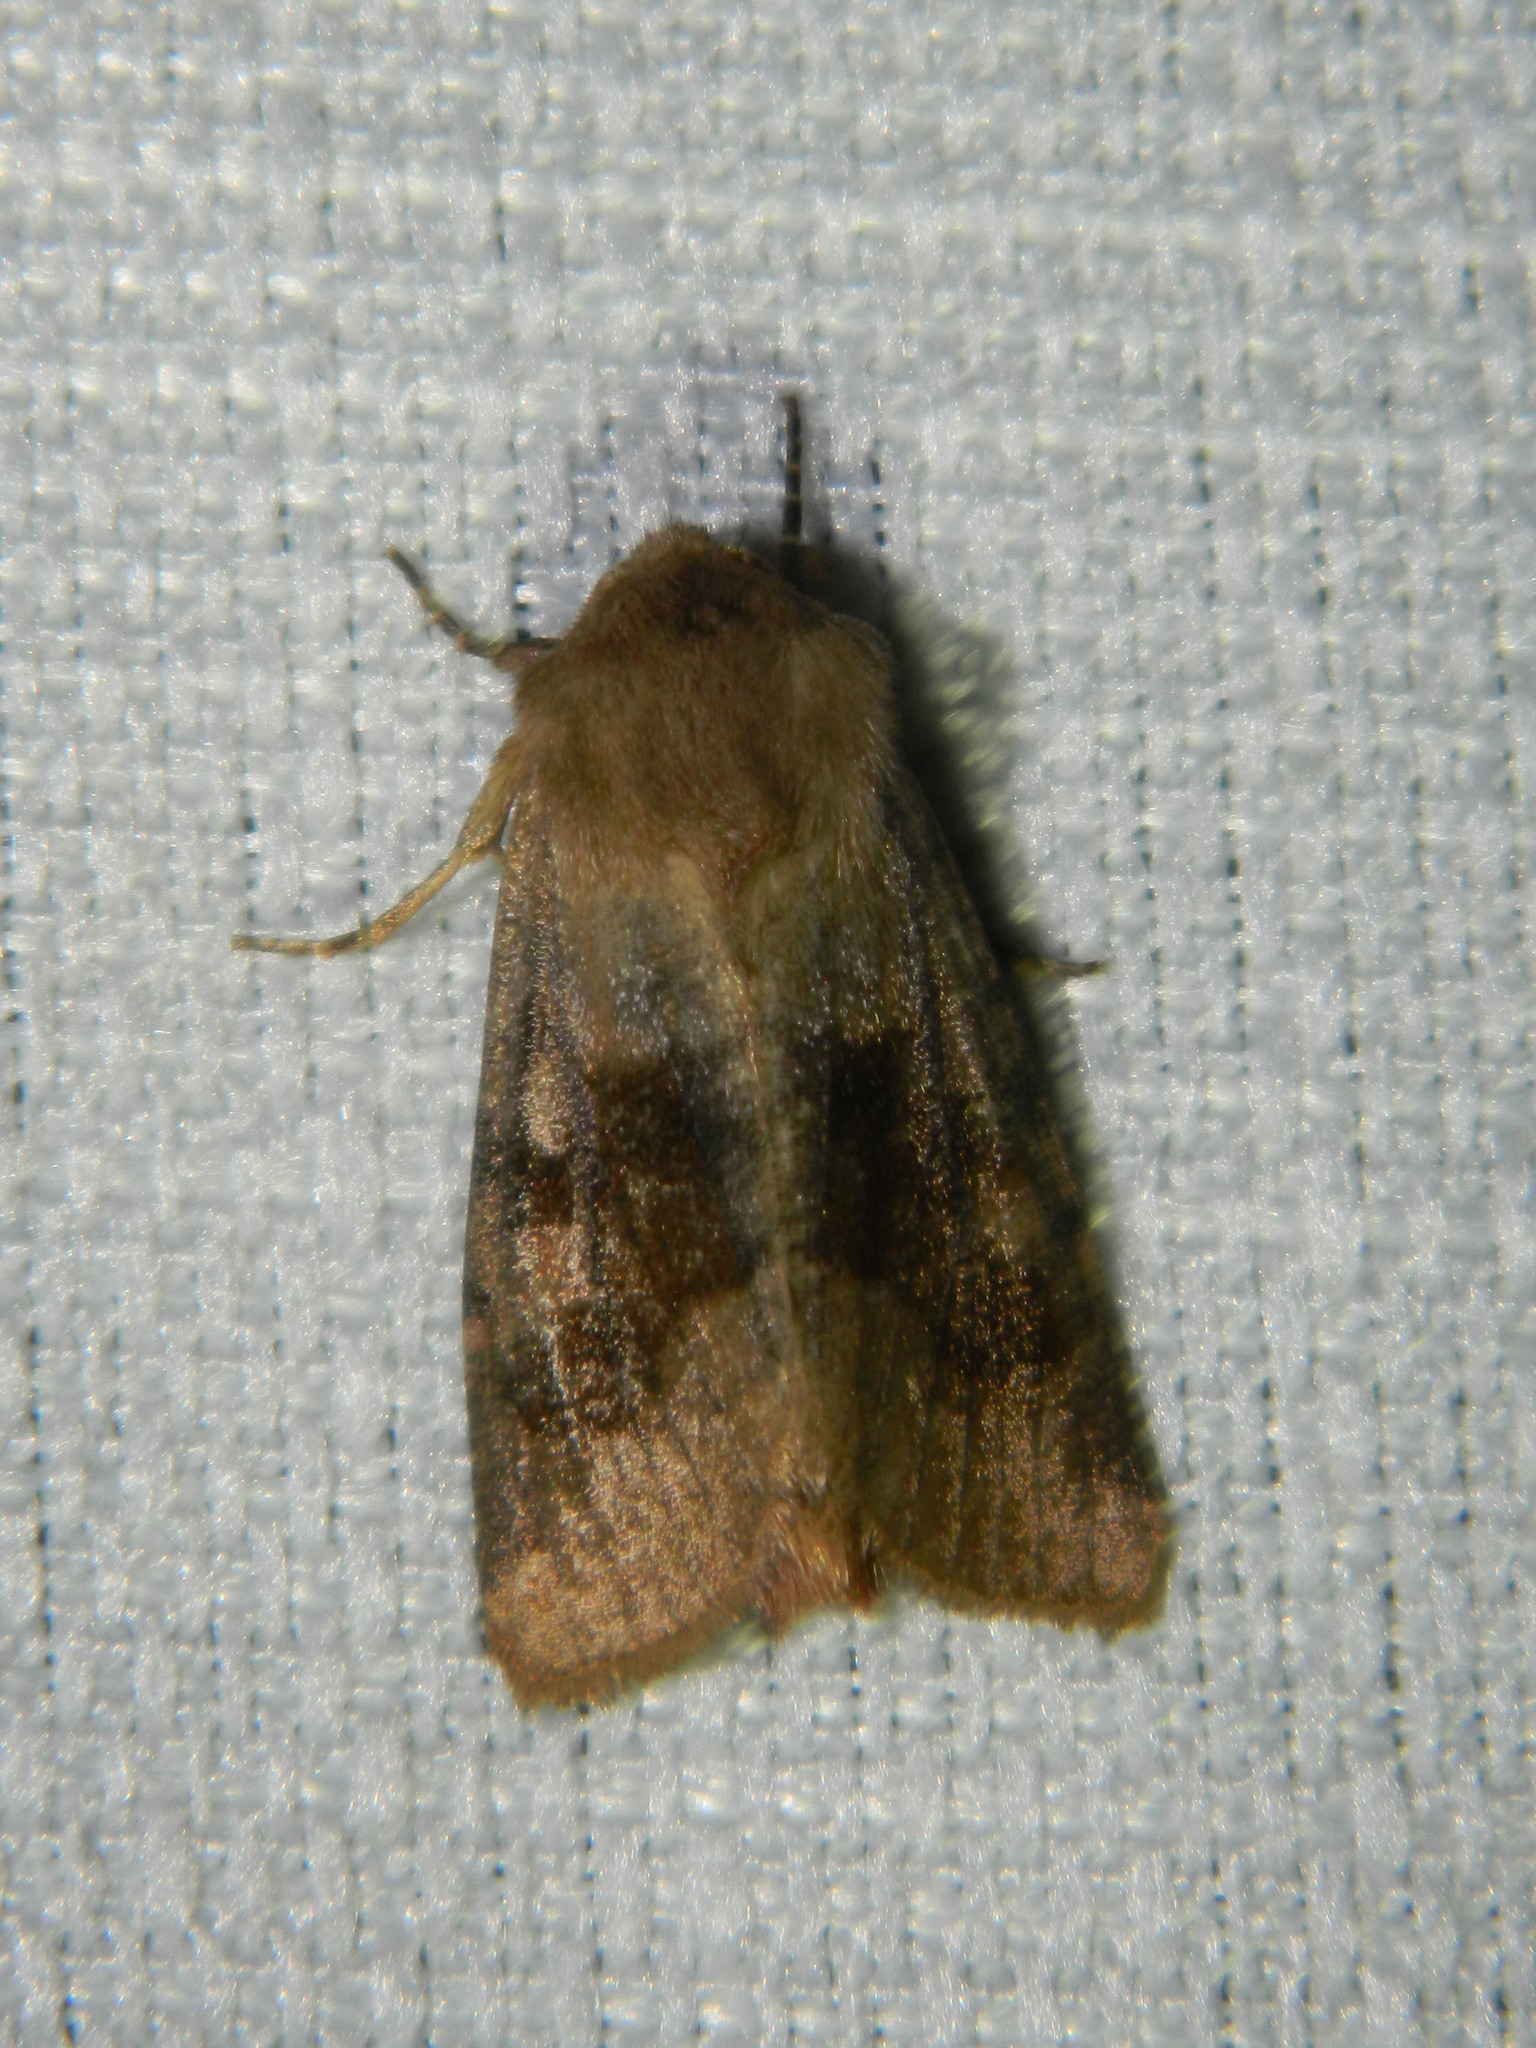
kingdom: Animalia
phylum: Arthropoda
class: Insecta
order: Lepidoptera
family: Noctuidae
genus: Nephelodes
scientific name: Nephelodes minians
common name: Bronzed cutworm
